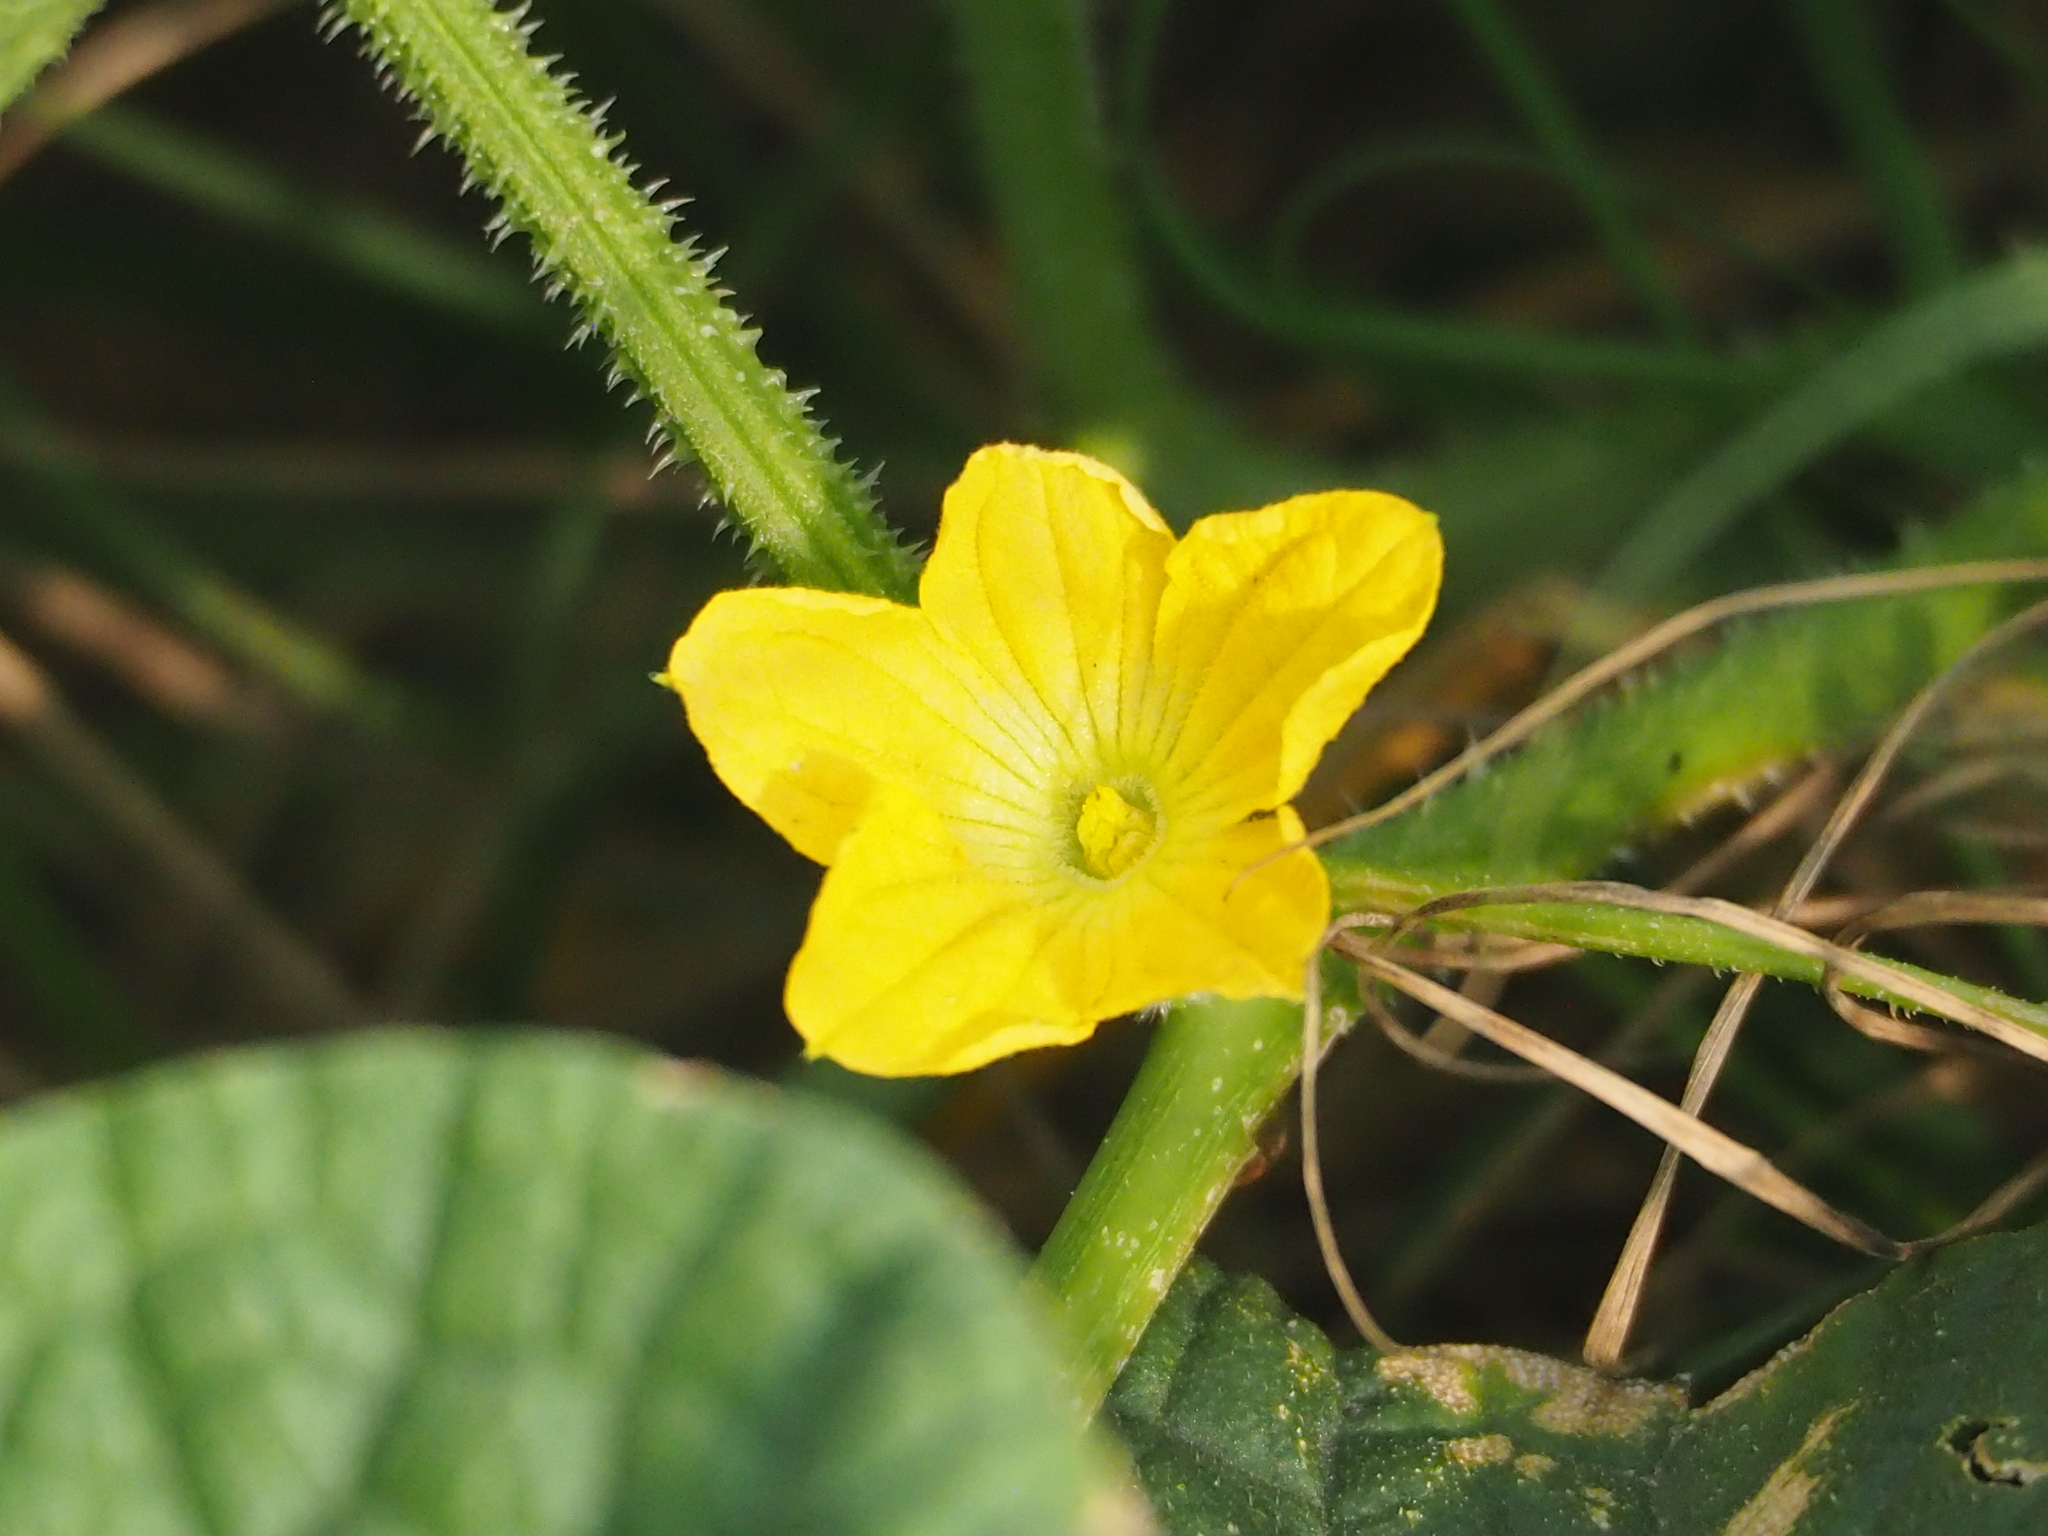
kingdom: Plantae
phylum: Tracheophyta
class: Magnoliopsida
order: Cucurbitales
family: Cucurbitaceae
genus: Cucumis
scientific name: Cucumis melo
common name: Melon
